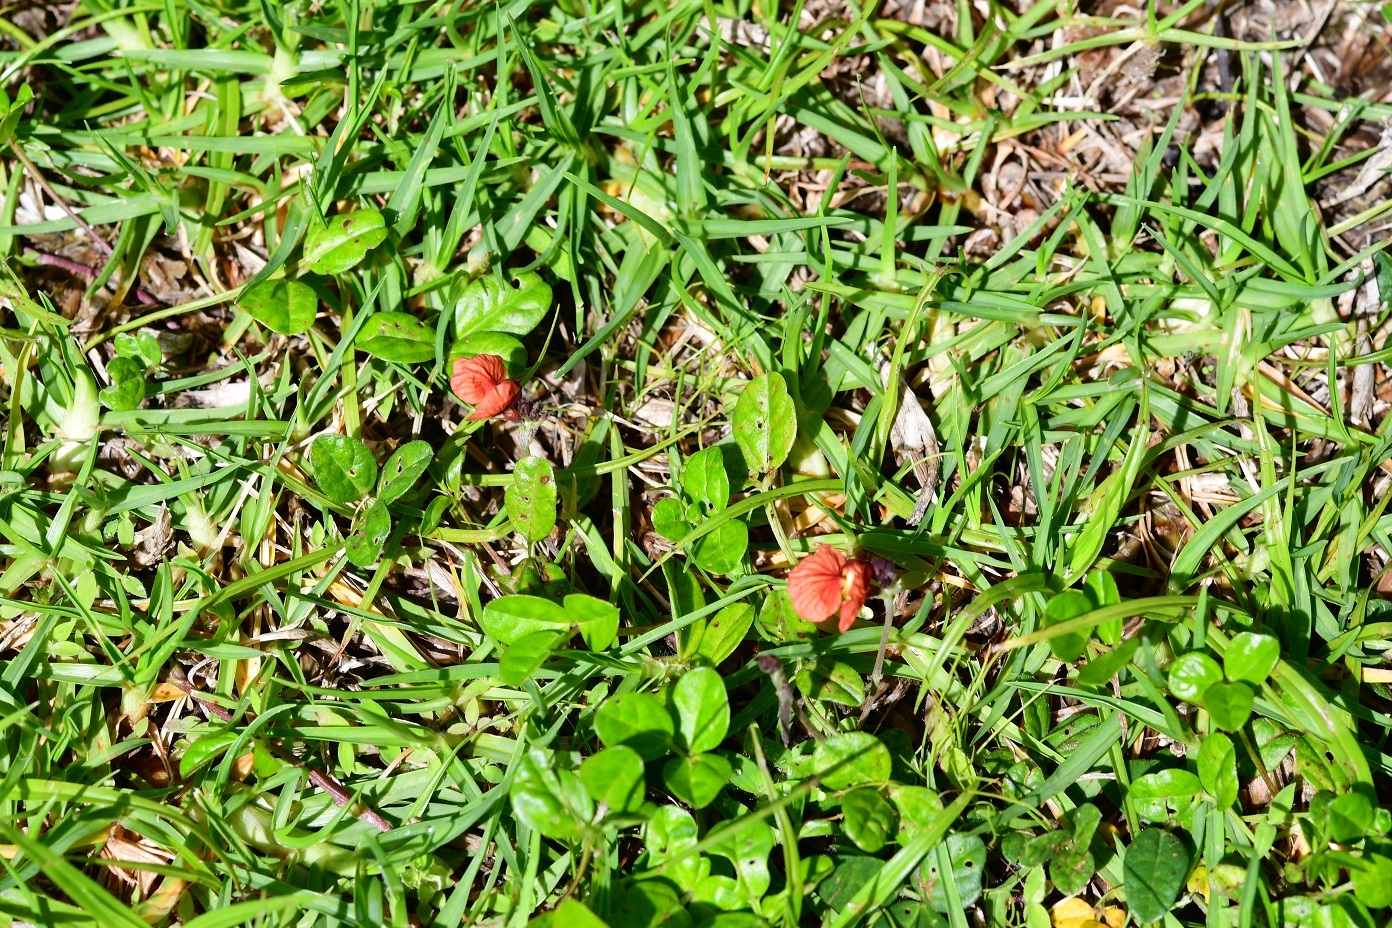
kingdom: Plantae
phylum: Tracheophyta
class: Magnoliopsida
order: Fabales
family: Fabaceae
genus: Macroptilium
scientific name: Macroptilium gibbosifolium
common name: Variableleaf bushbean
